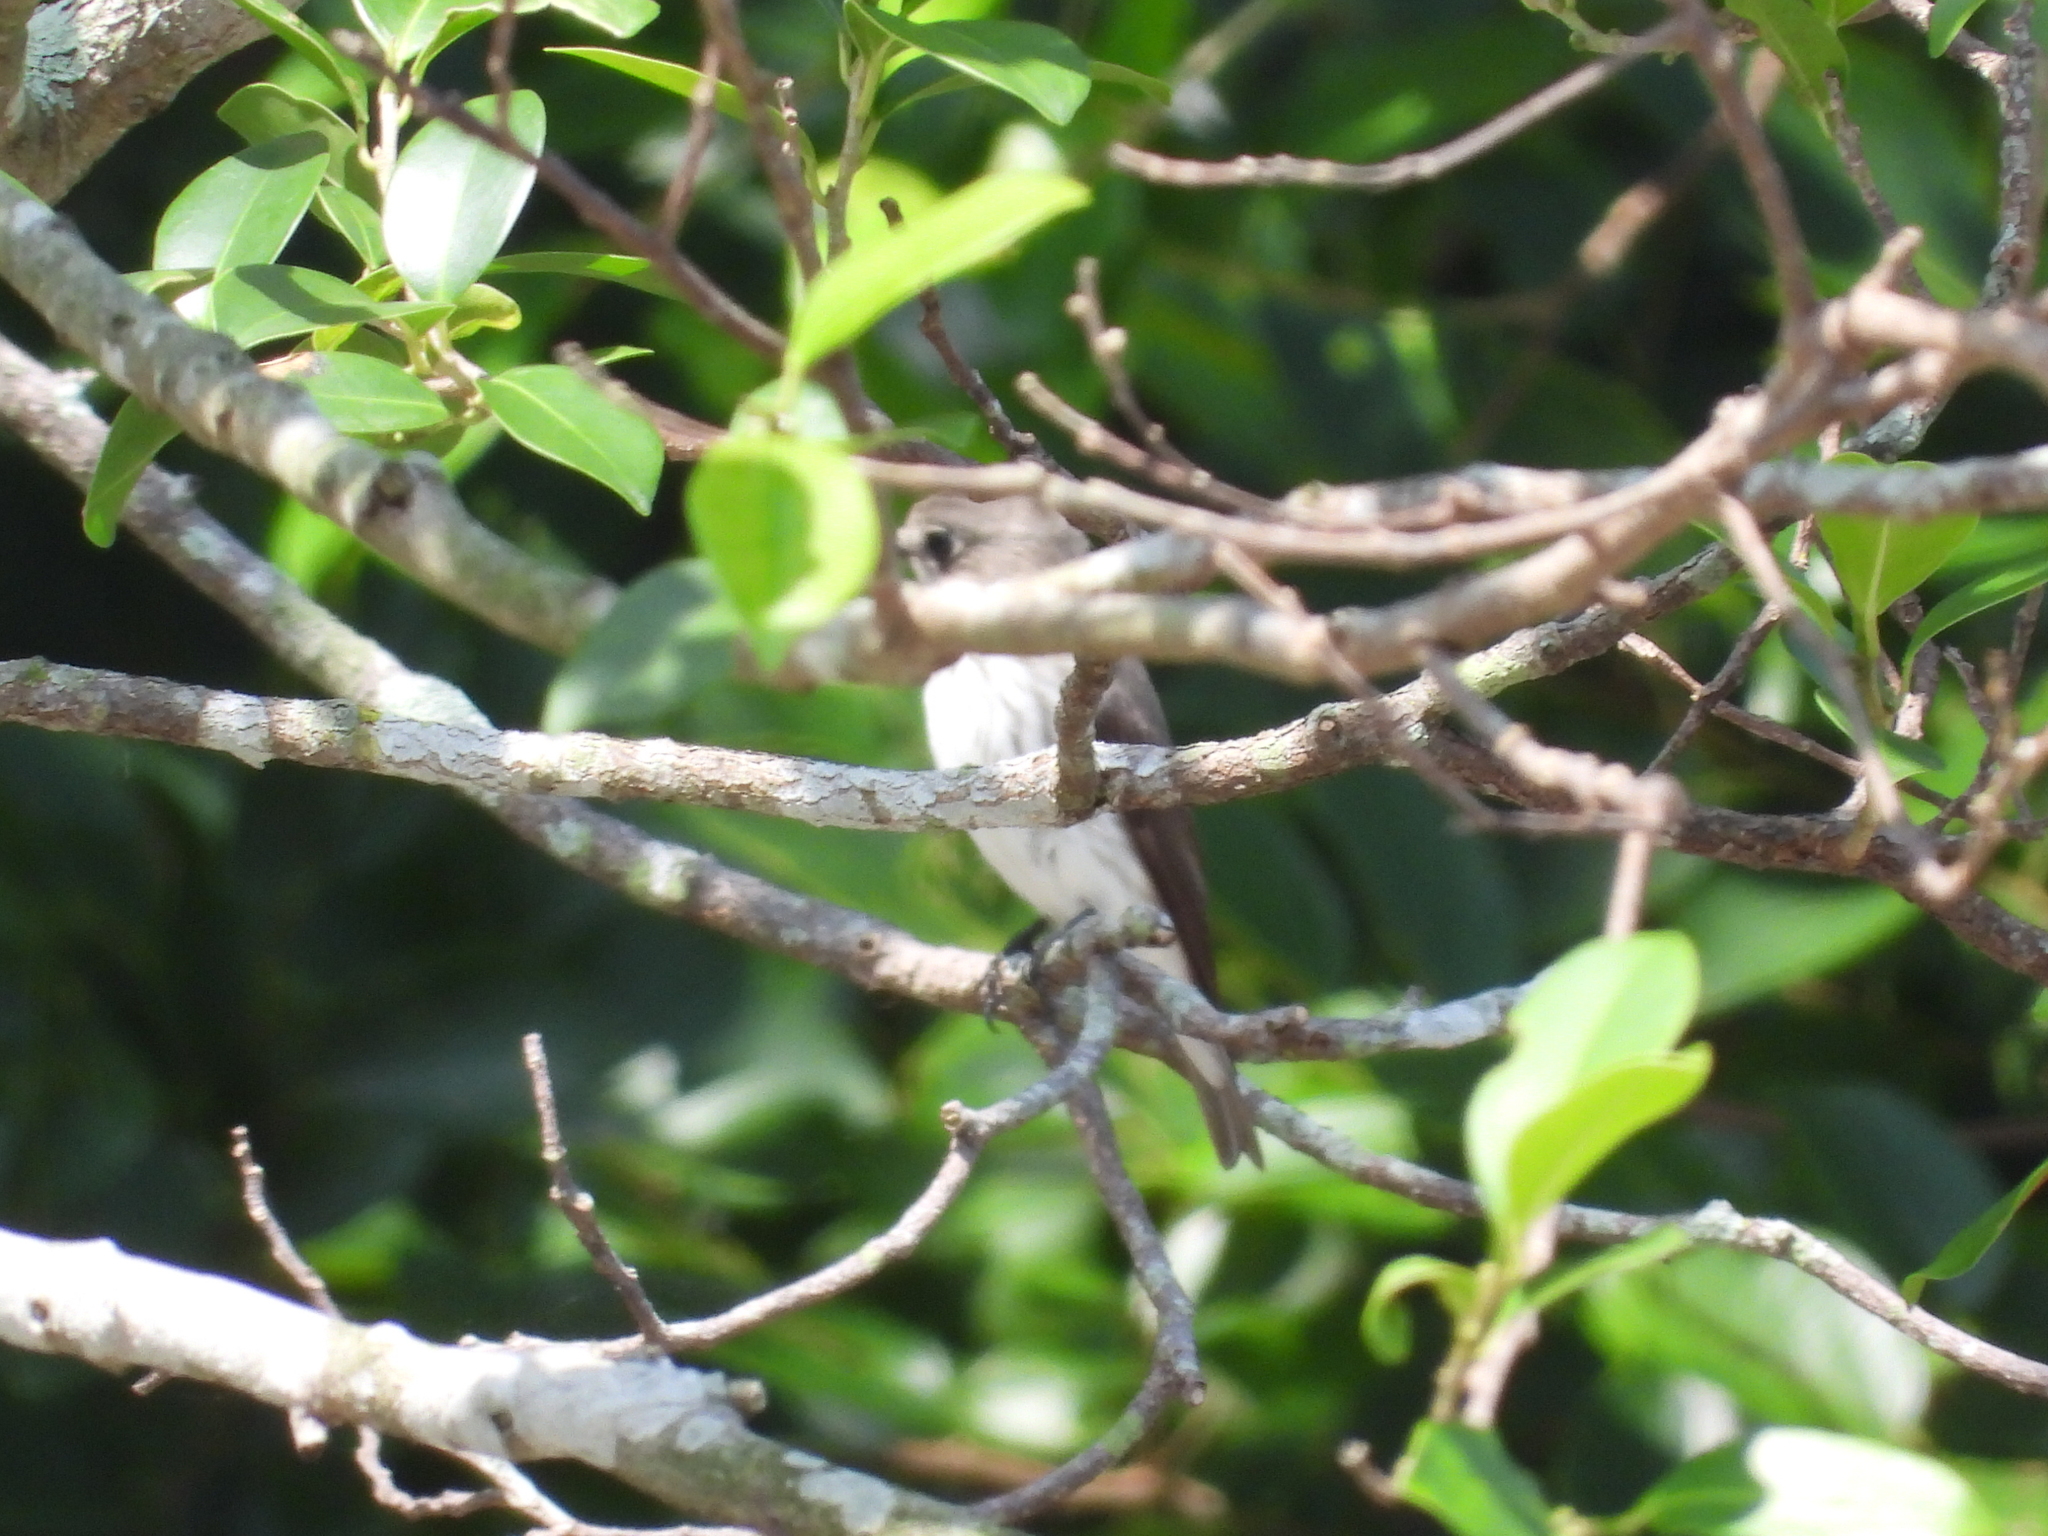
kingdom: Animalia
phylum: Chordata
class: Aves
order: Passeriformes
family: Muscicapidae
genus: Muscicapa
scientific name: Muscicapa griseisticta
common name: Gray-streaked flycatcher
